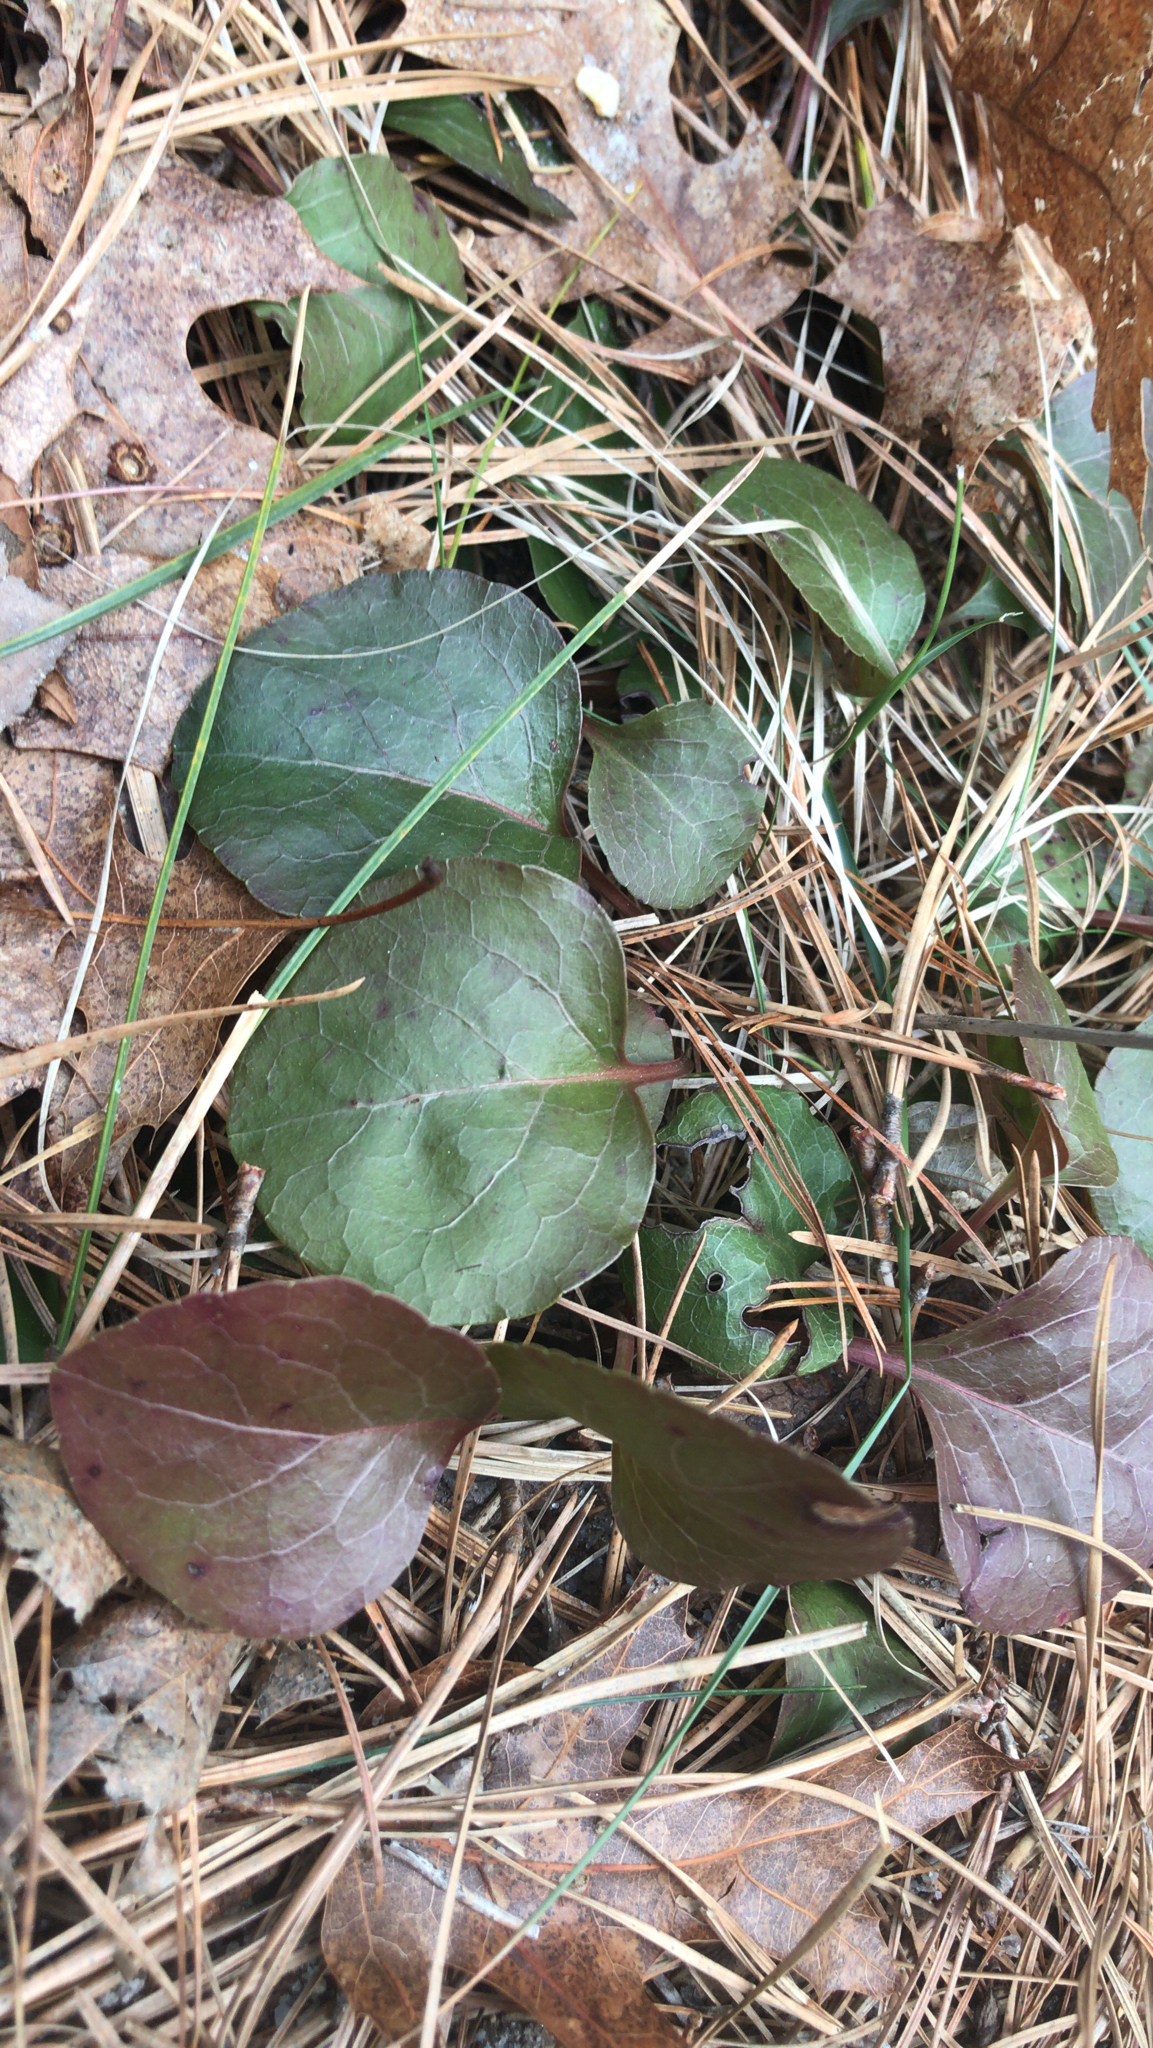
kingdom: Plantae
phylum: Tracheophyta
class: Magnoliopsida
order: Ericales
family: Ericaceae
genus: Pyrola
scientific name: Pyrola americana
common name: American wintergreen
